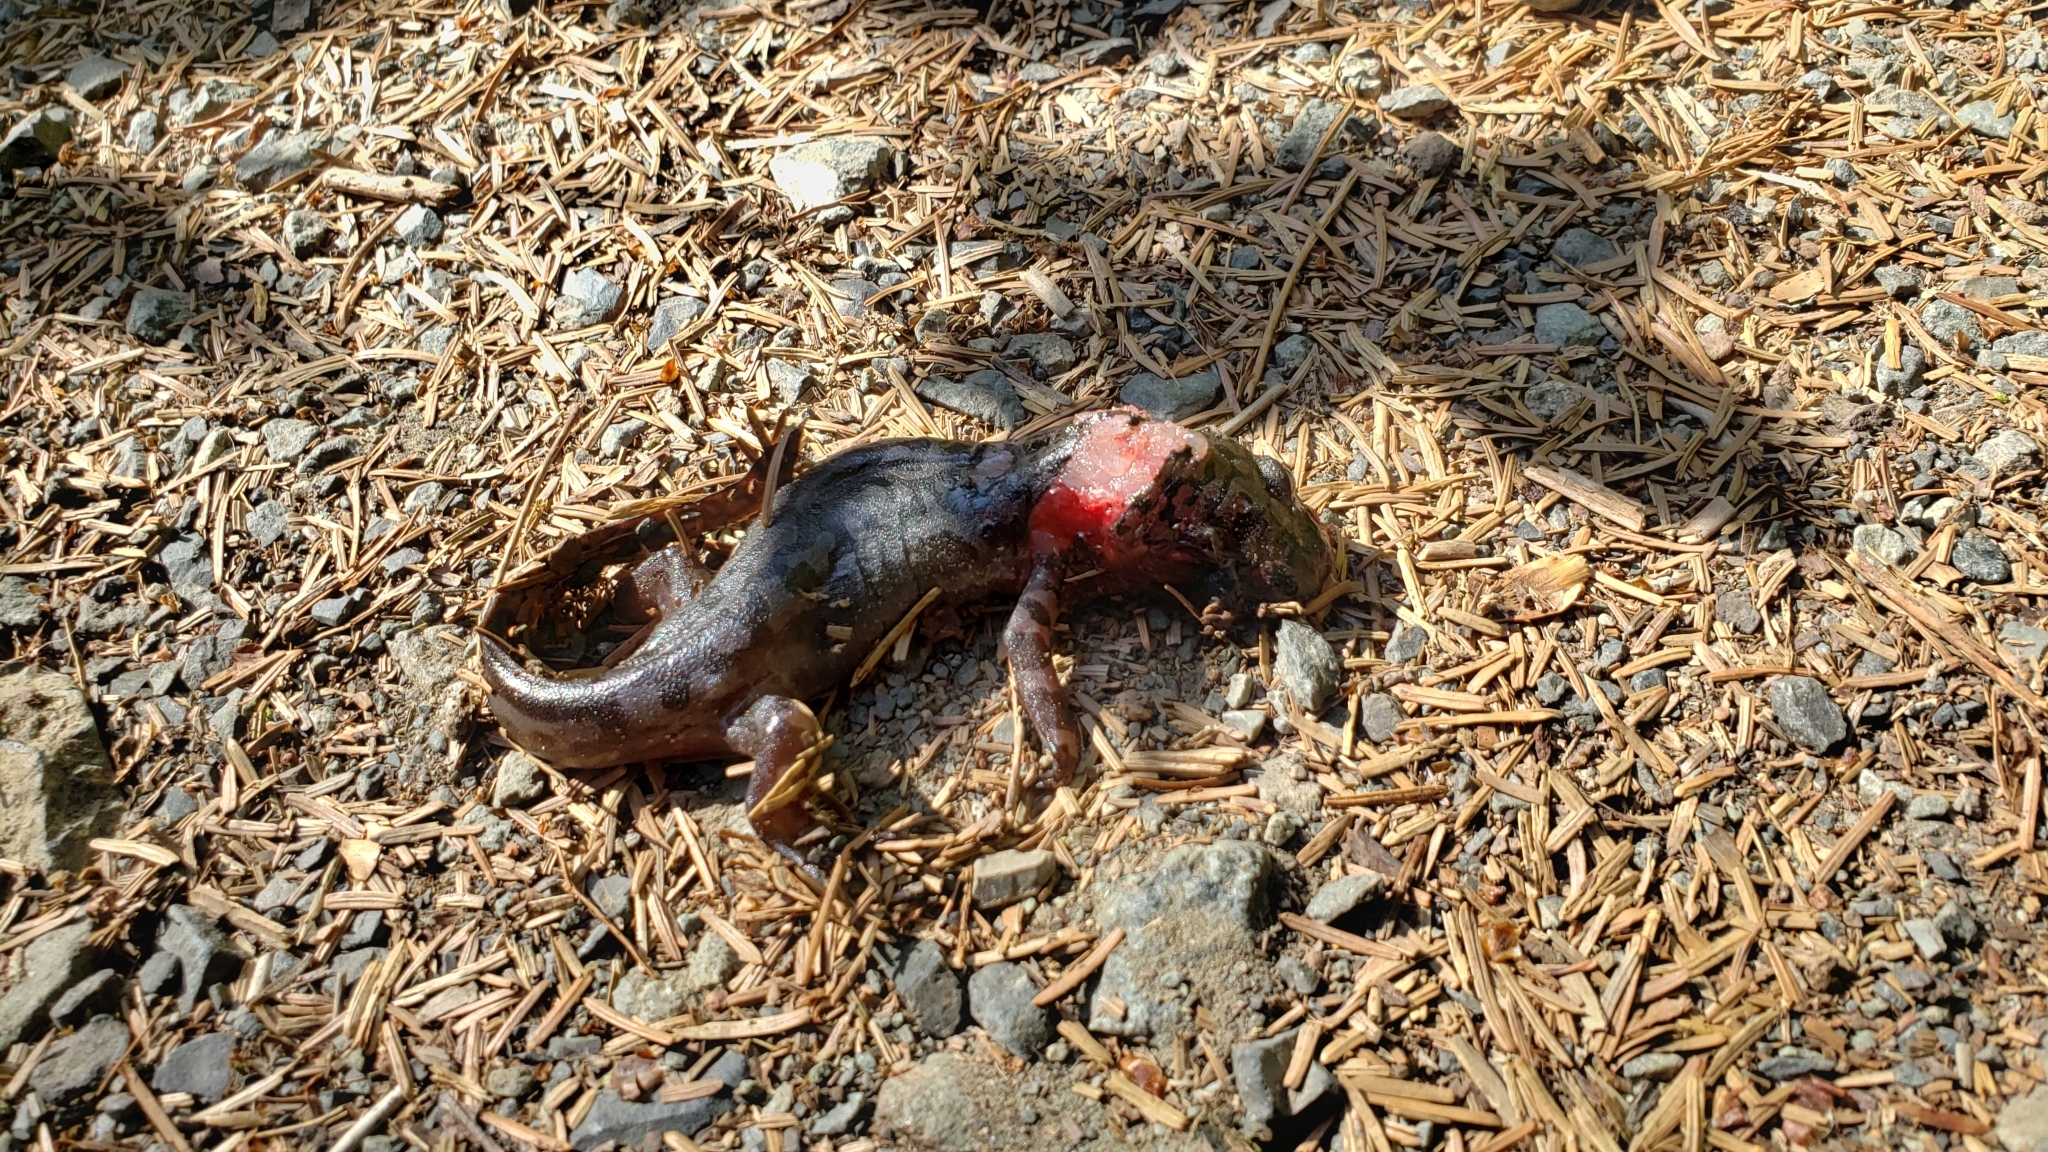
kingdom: Animalia
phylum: Chordata
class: Amphibia
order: Caudata
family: Ambystomatidae
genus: Dicamptodon
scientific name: Dicamptodon tenebrosus
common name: Coastal giant salamander
